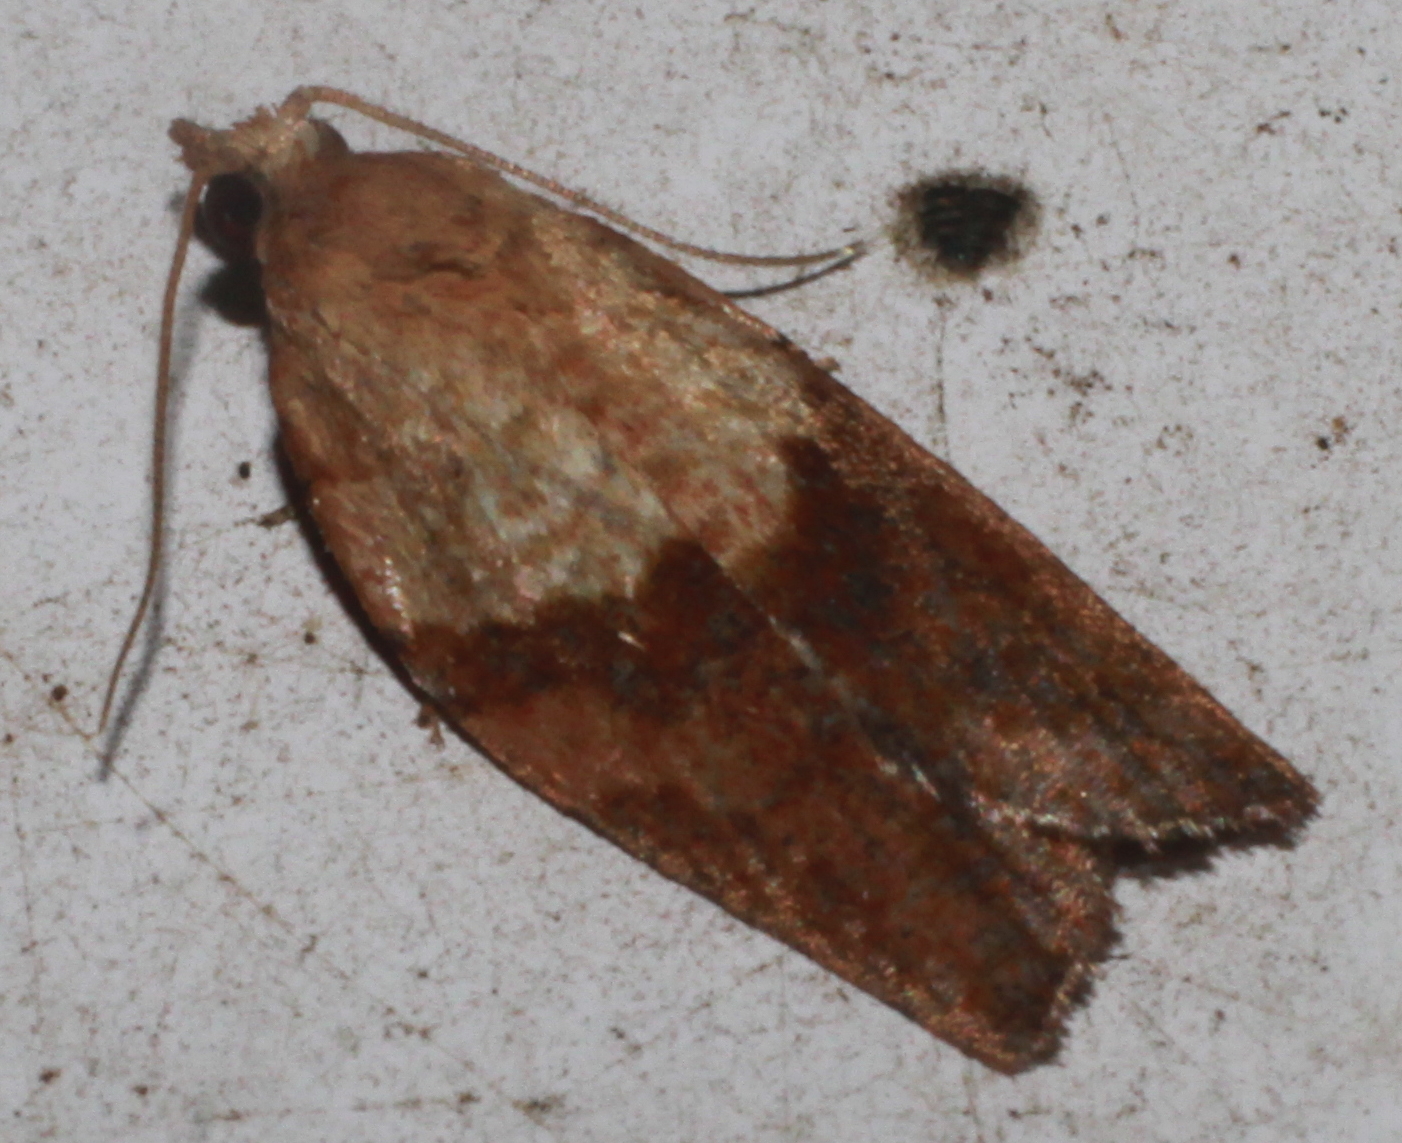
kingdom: Animalia
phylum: Arthropoda
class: Insecta
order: Lepidoptera
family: Tortricidae
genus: Epiphyas
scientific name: Epiphyas postvittana
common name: Light brown apple moth
